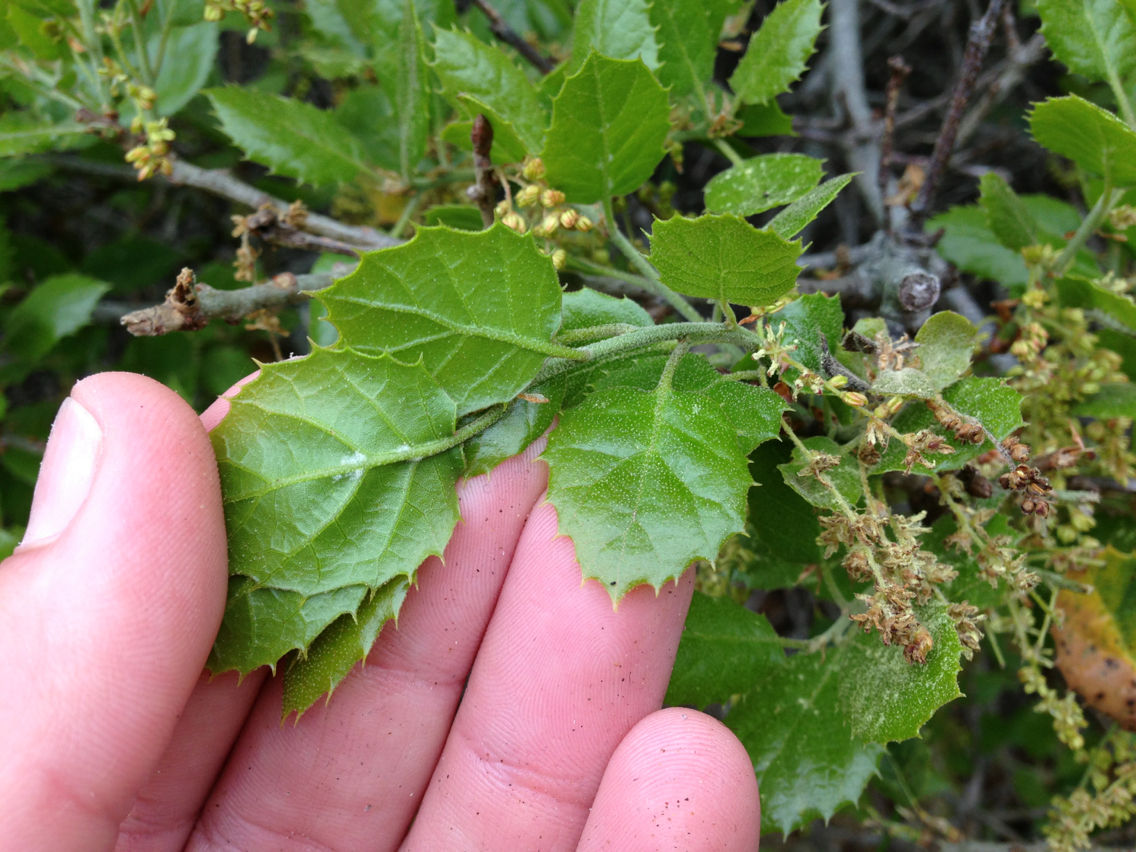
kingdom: Plantae
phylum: Tracheophyta
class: Magnoliopsida
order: Fagales
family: Fagaceae
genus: Quercus
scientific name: Quercus agrifolia
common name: California live oak
